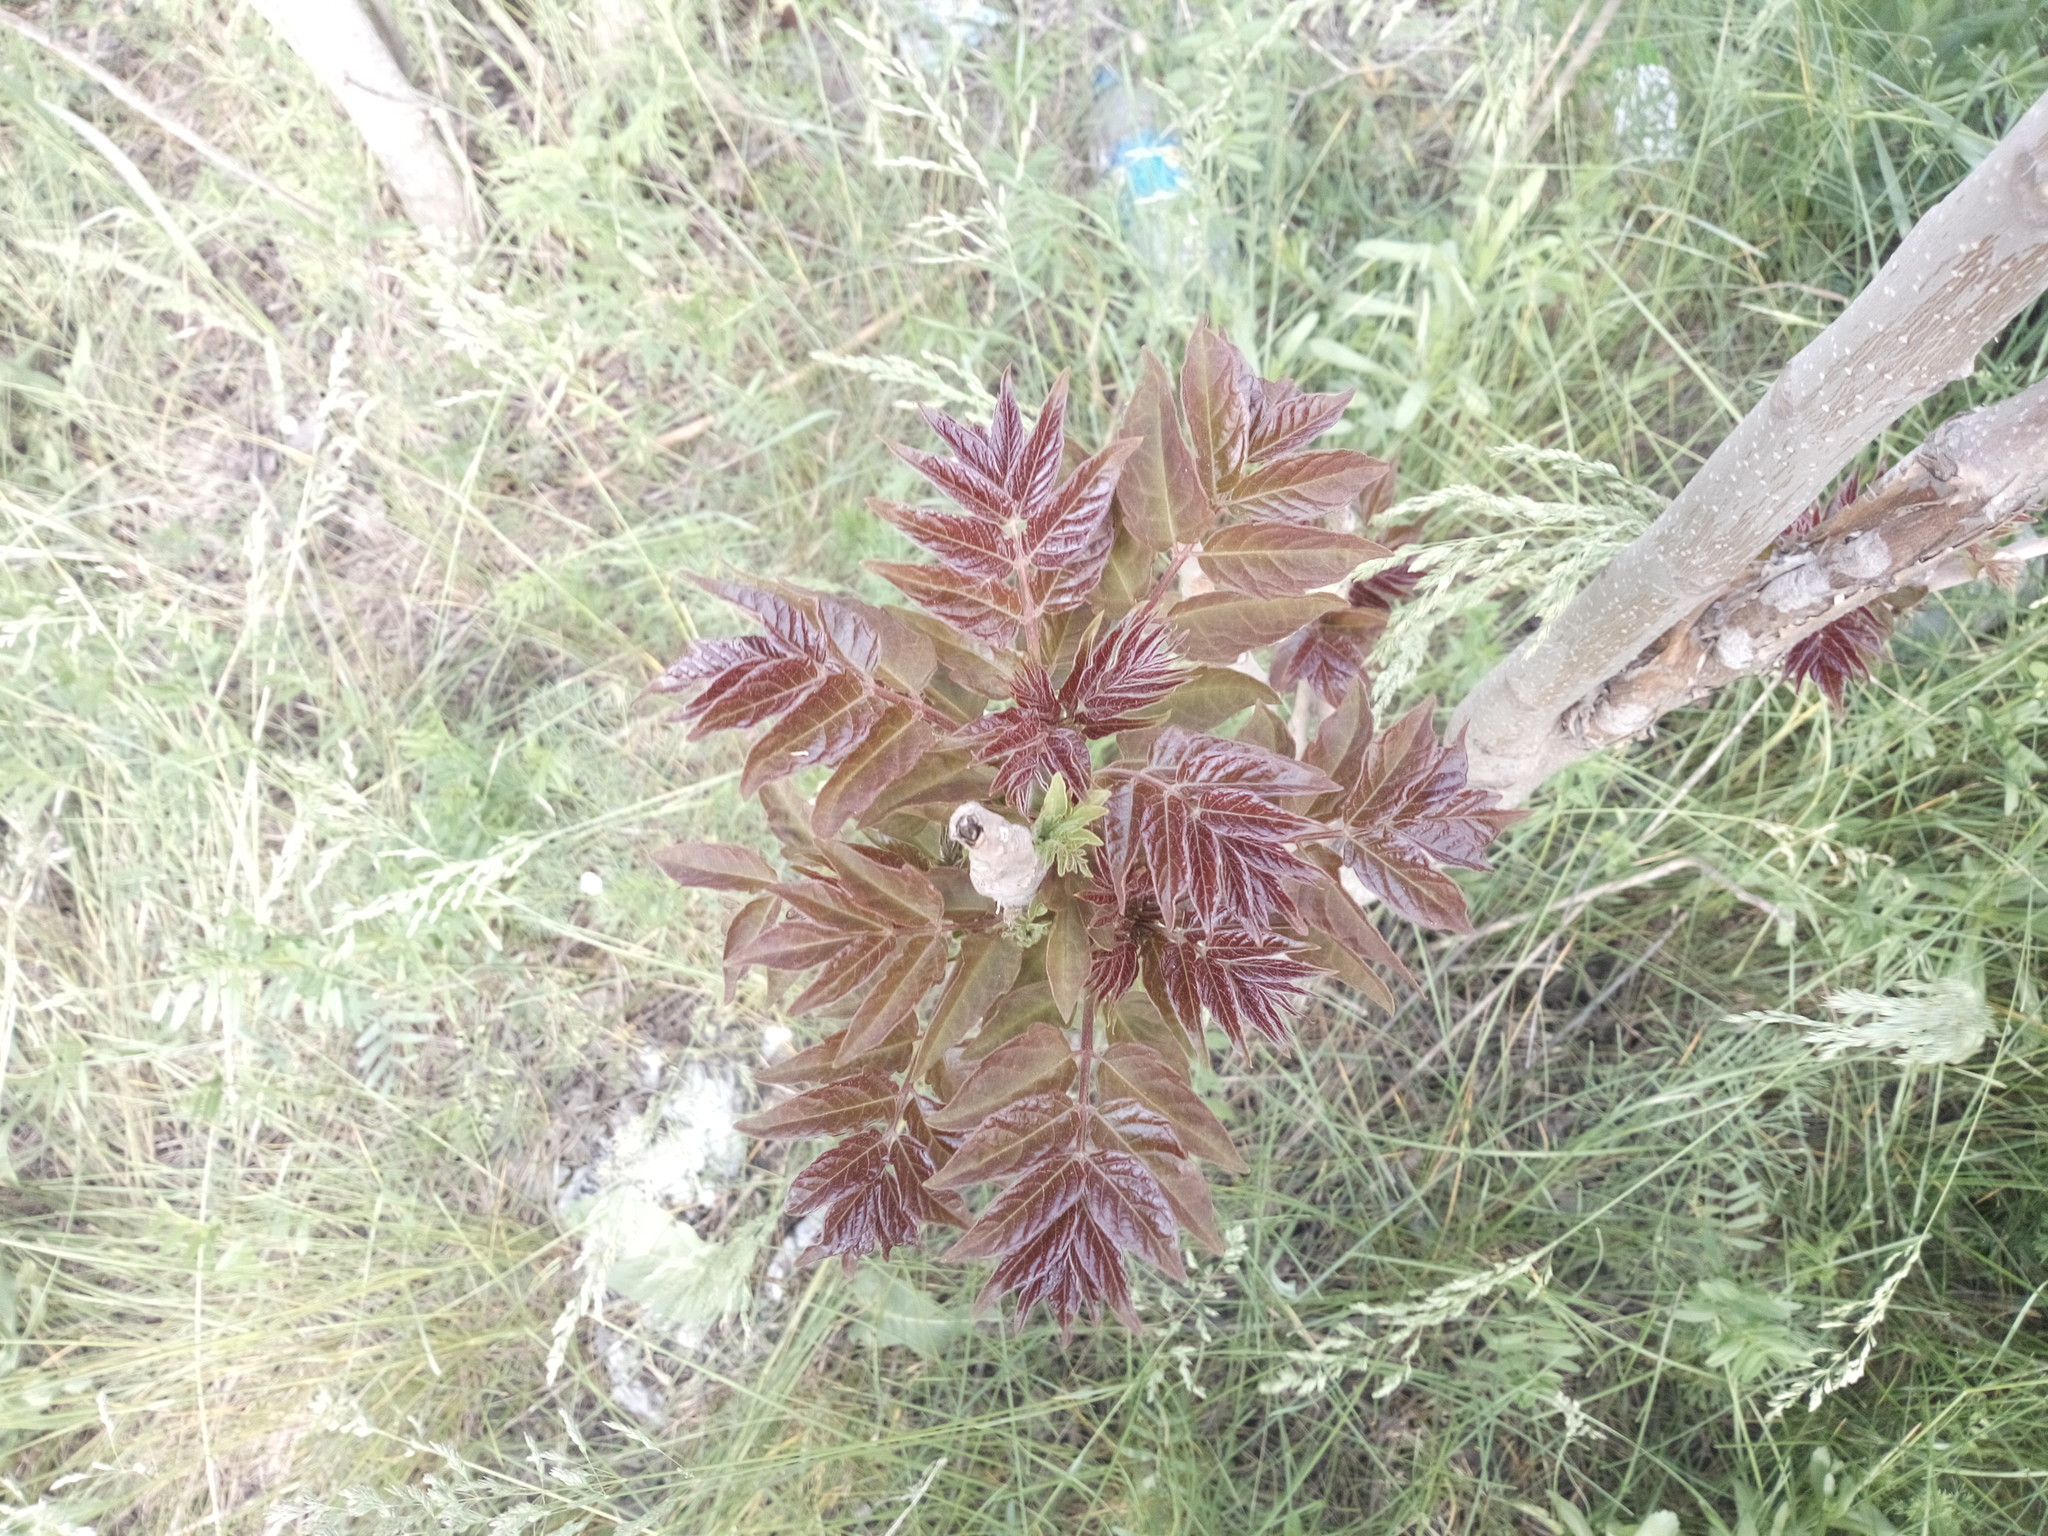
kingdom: Plantae
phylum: Tracheophyta
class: Magnoliopsida
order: Sapindales
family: Simaroubaceae
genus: Ailanthus
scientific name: Ailanthus altissima
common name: Tree-of-heaven
